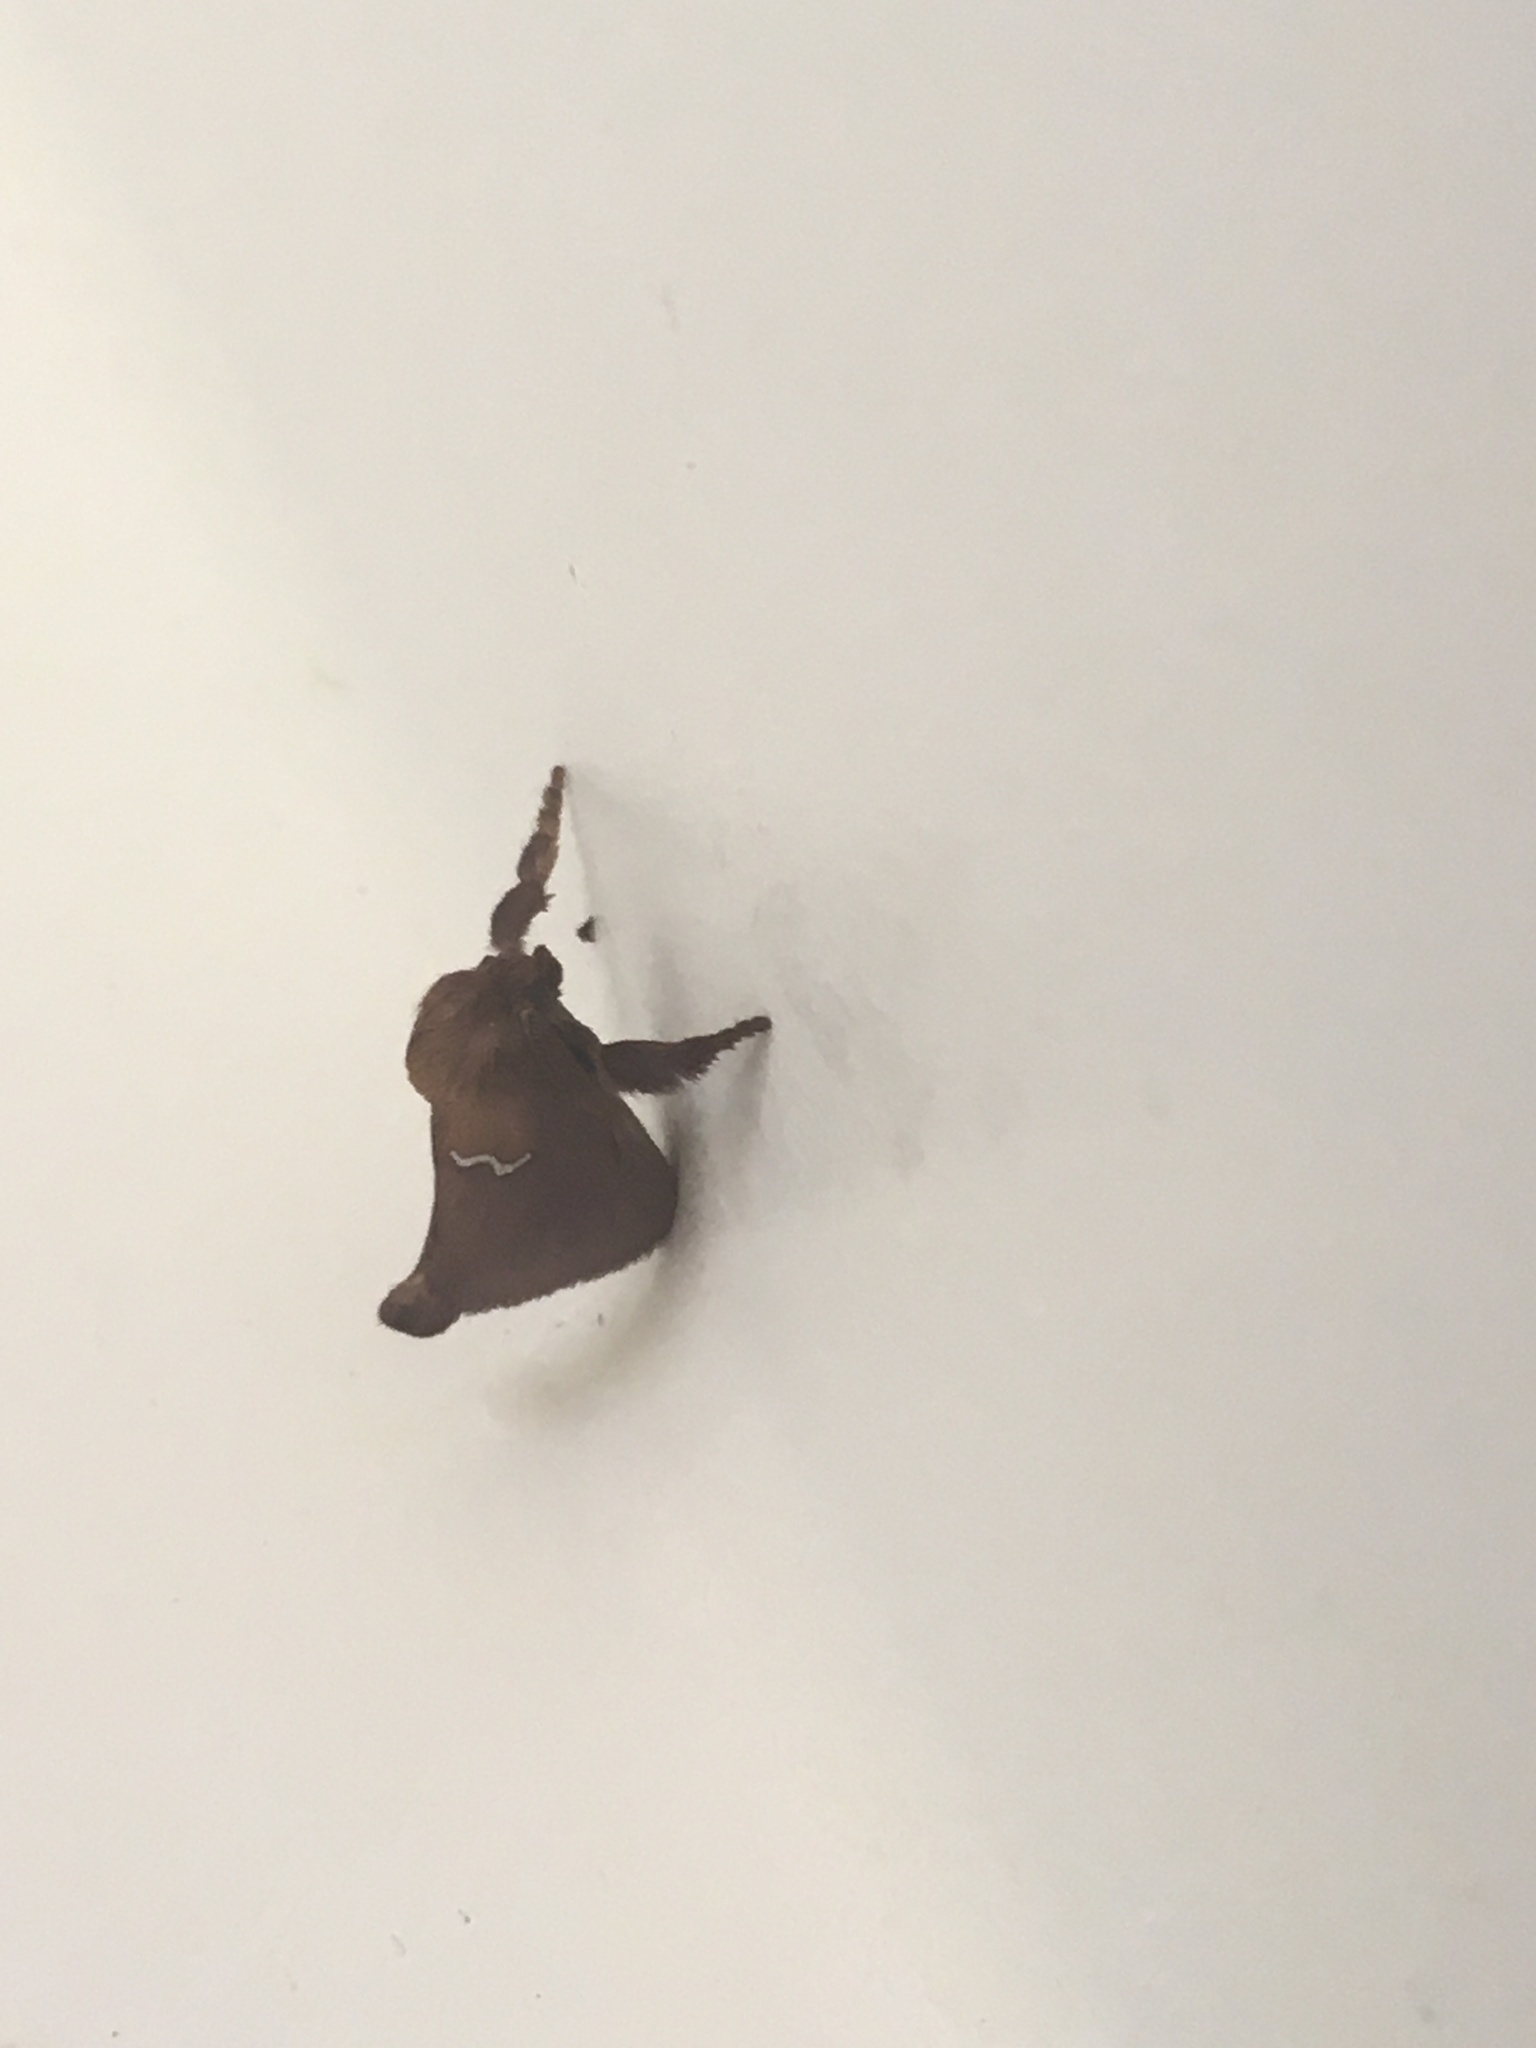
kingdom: Animalia
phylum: Arthropoda
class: Insecta
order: Lepidoptera
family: Limacodidae
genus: Monoleuca
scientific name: Monoleuca semifascia
